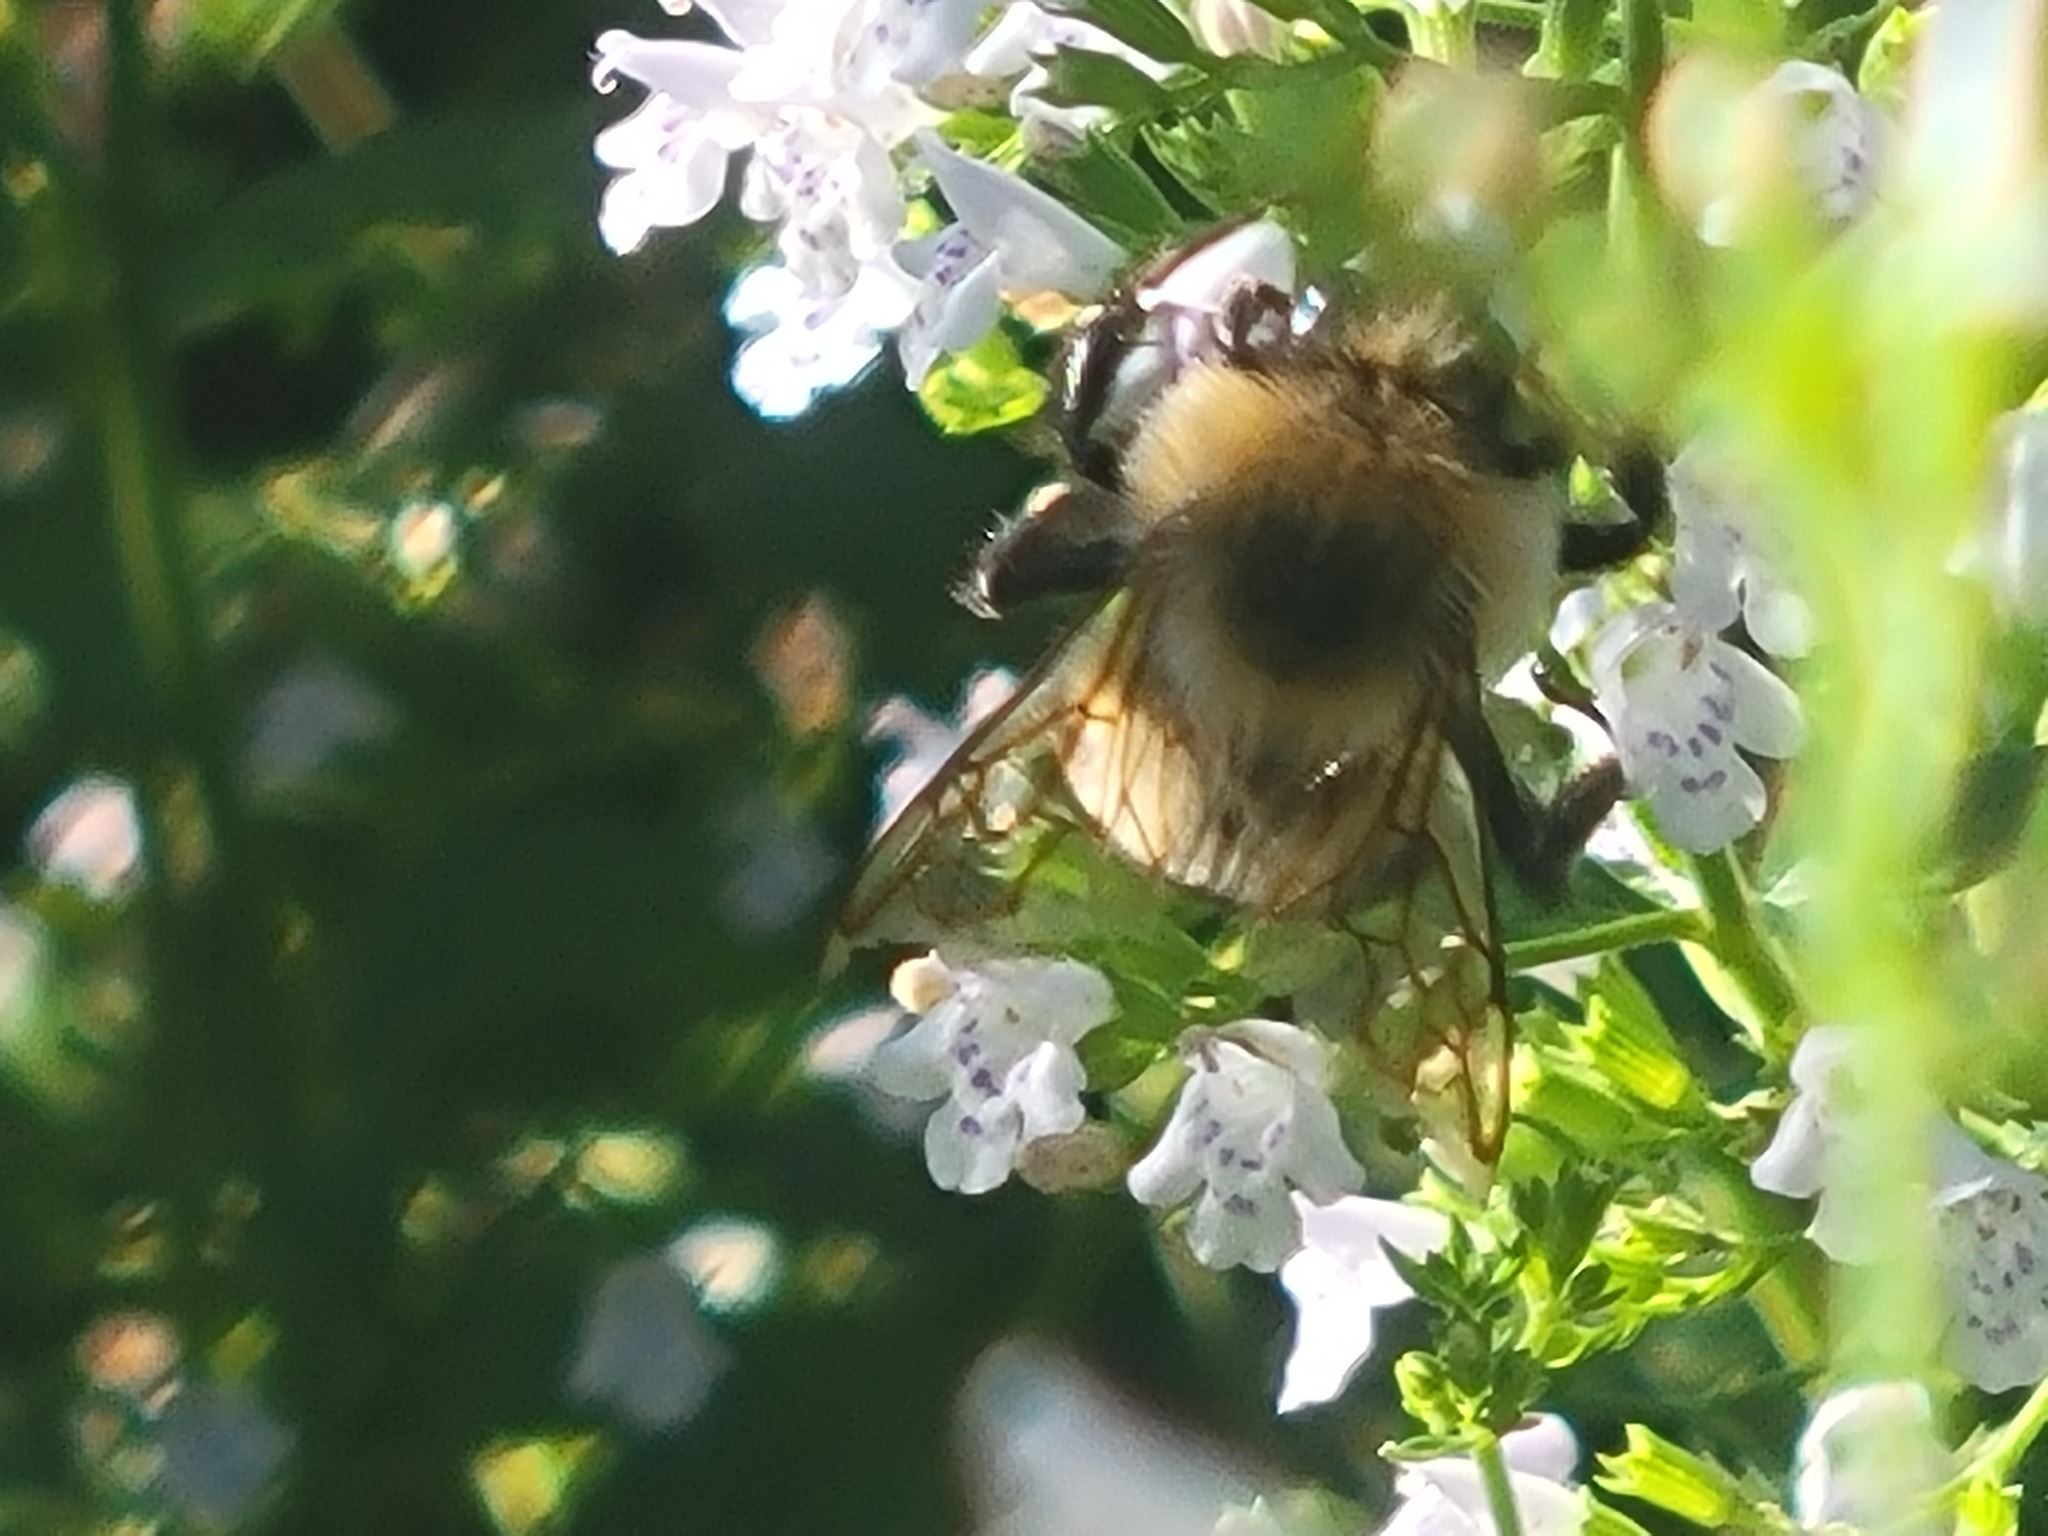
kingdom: Animalia
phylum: Arthropoda
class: Insecta
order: Hymenoptera
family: Apidae
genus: Bombus
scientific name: Bombus bimaculatus
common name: Two-spotted bumble bee
